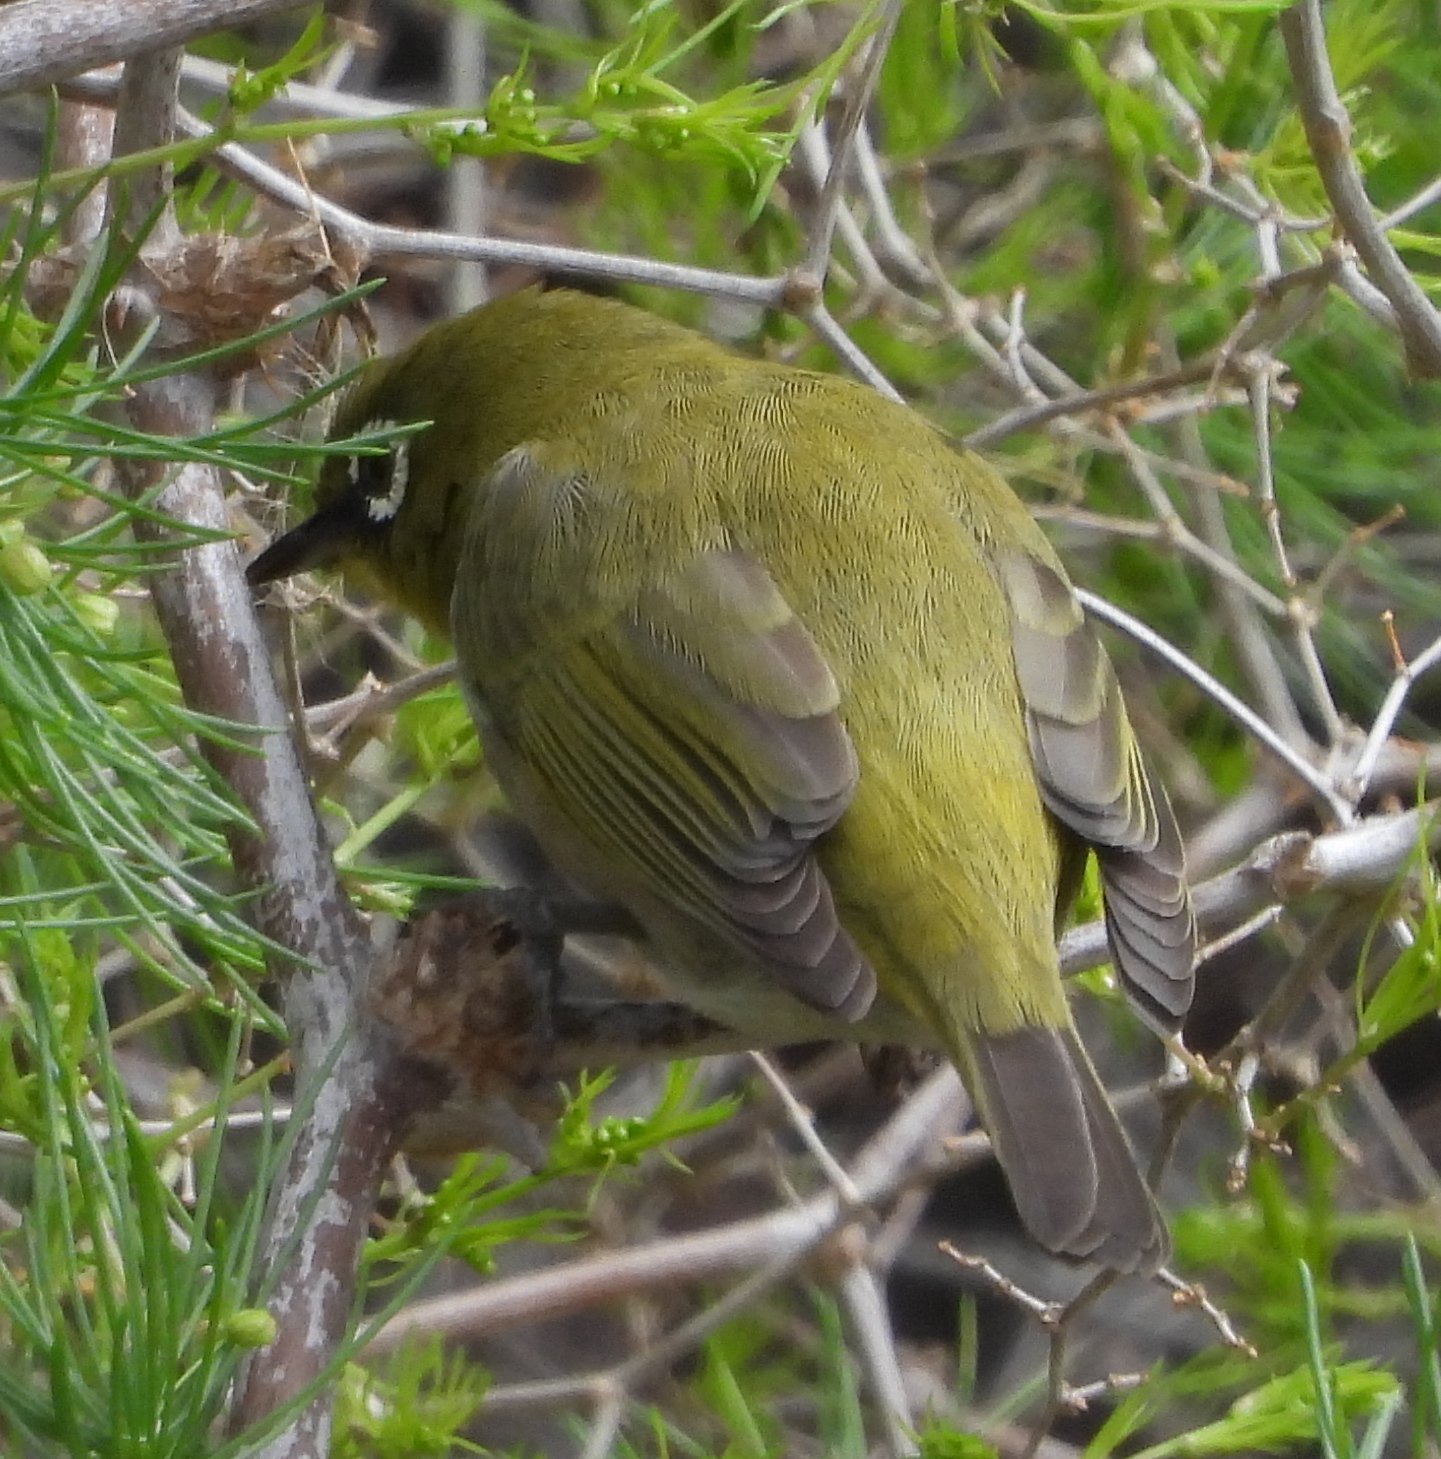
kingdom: Animalia
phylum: Chordata
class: Aves
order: Passeriformes
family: Zosteropidae
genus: Zosterops
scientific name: Zosterops virens
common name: Cape white-eye
